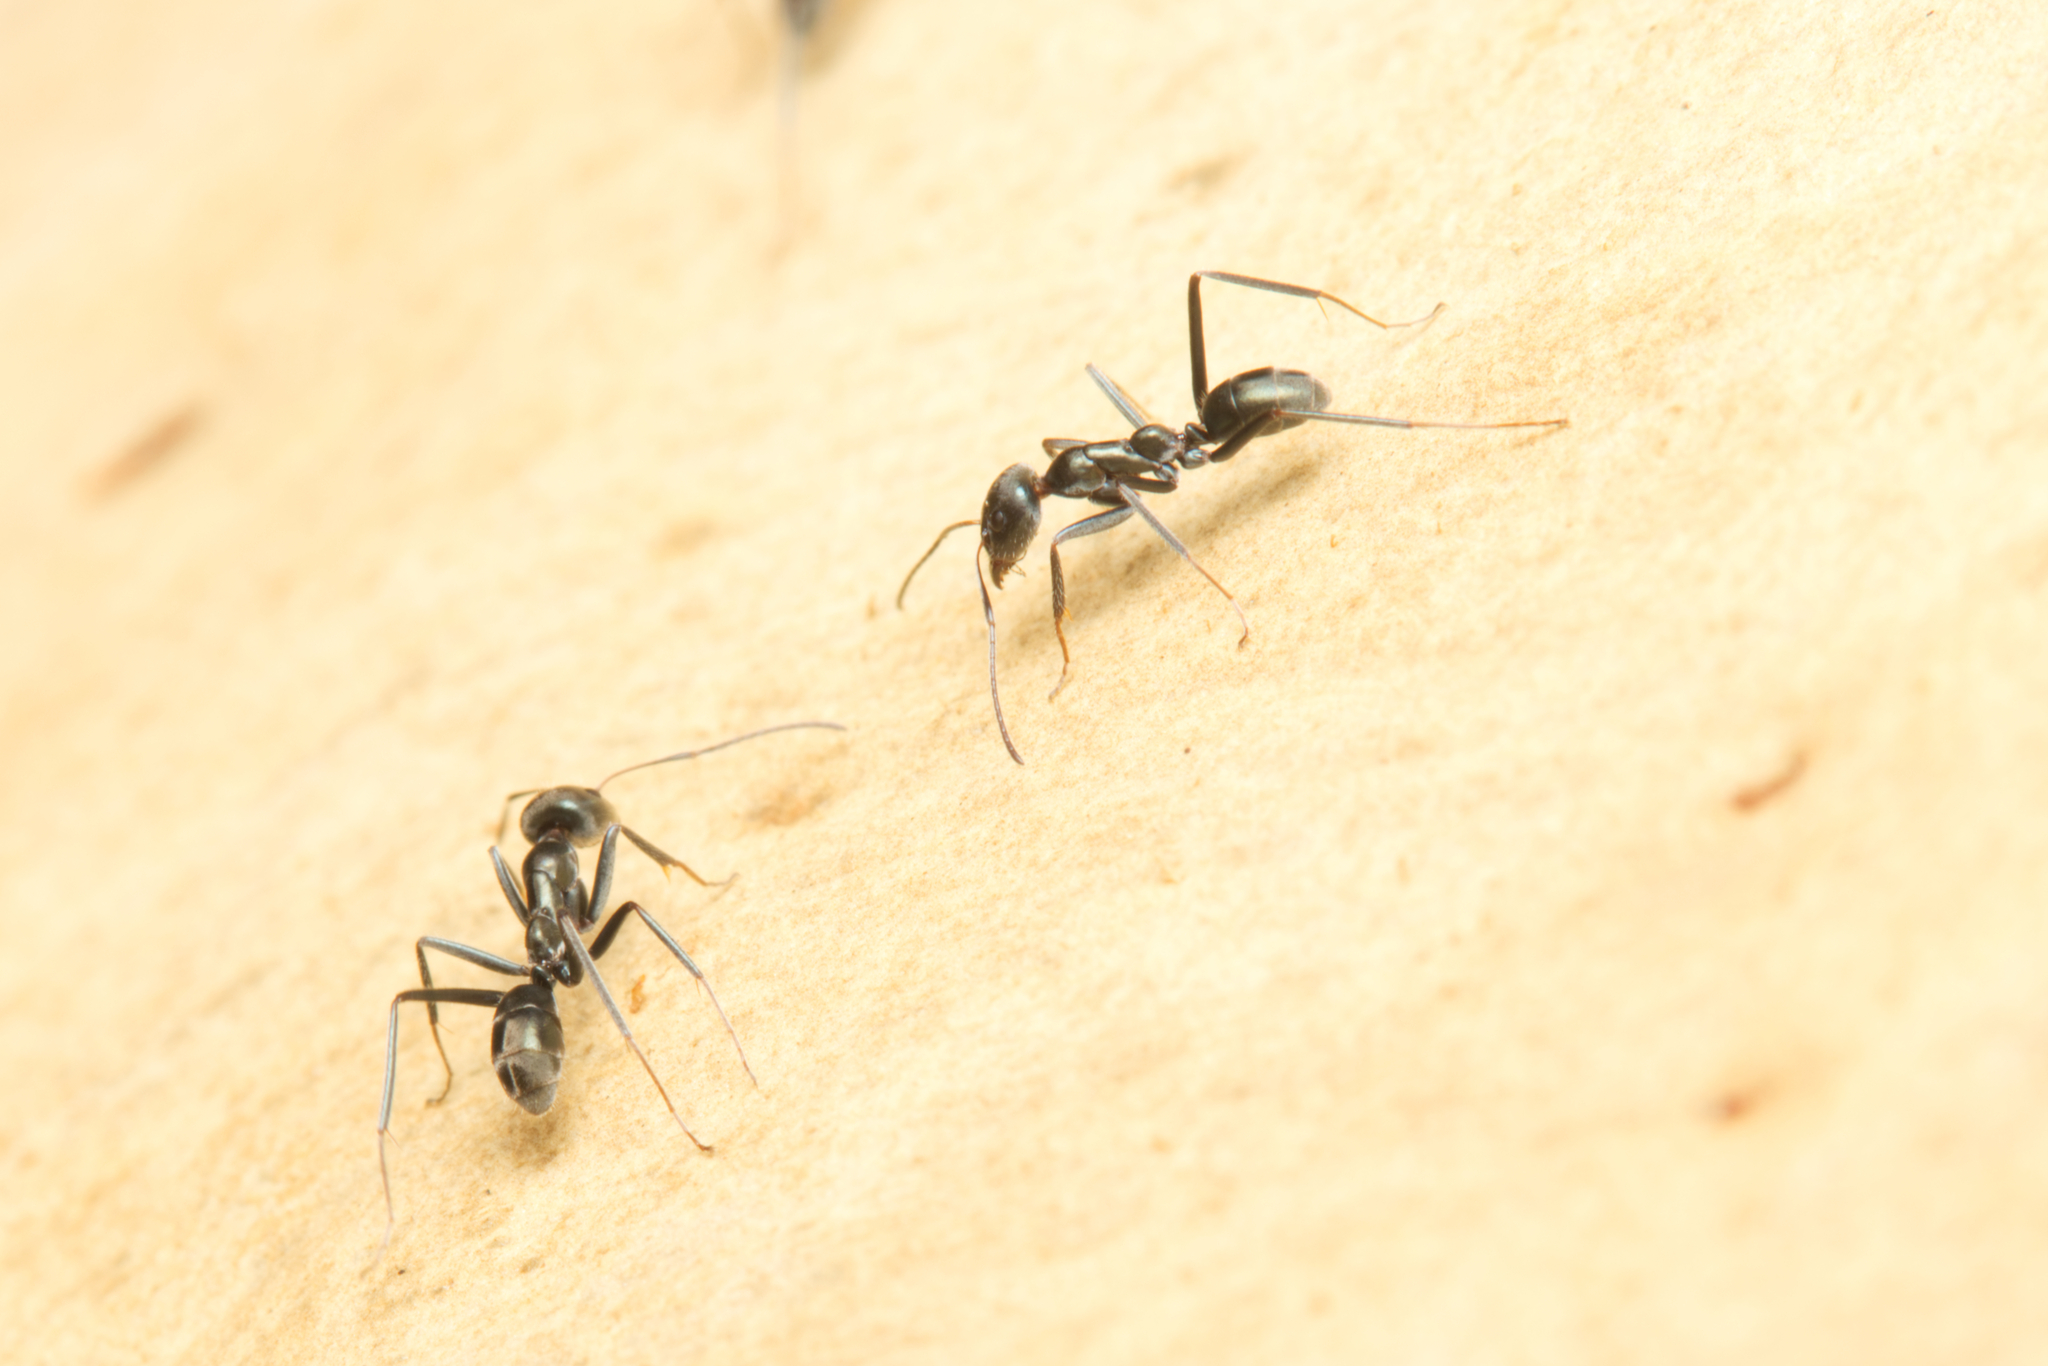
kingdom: Animalia
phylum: Arthropoda
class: Insecta
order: Hymenoptera
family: Formicidae
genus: Iridomyrmex
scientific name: Iridomyrmex
